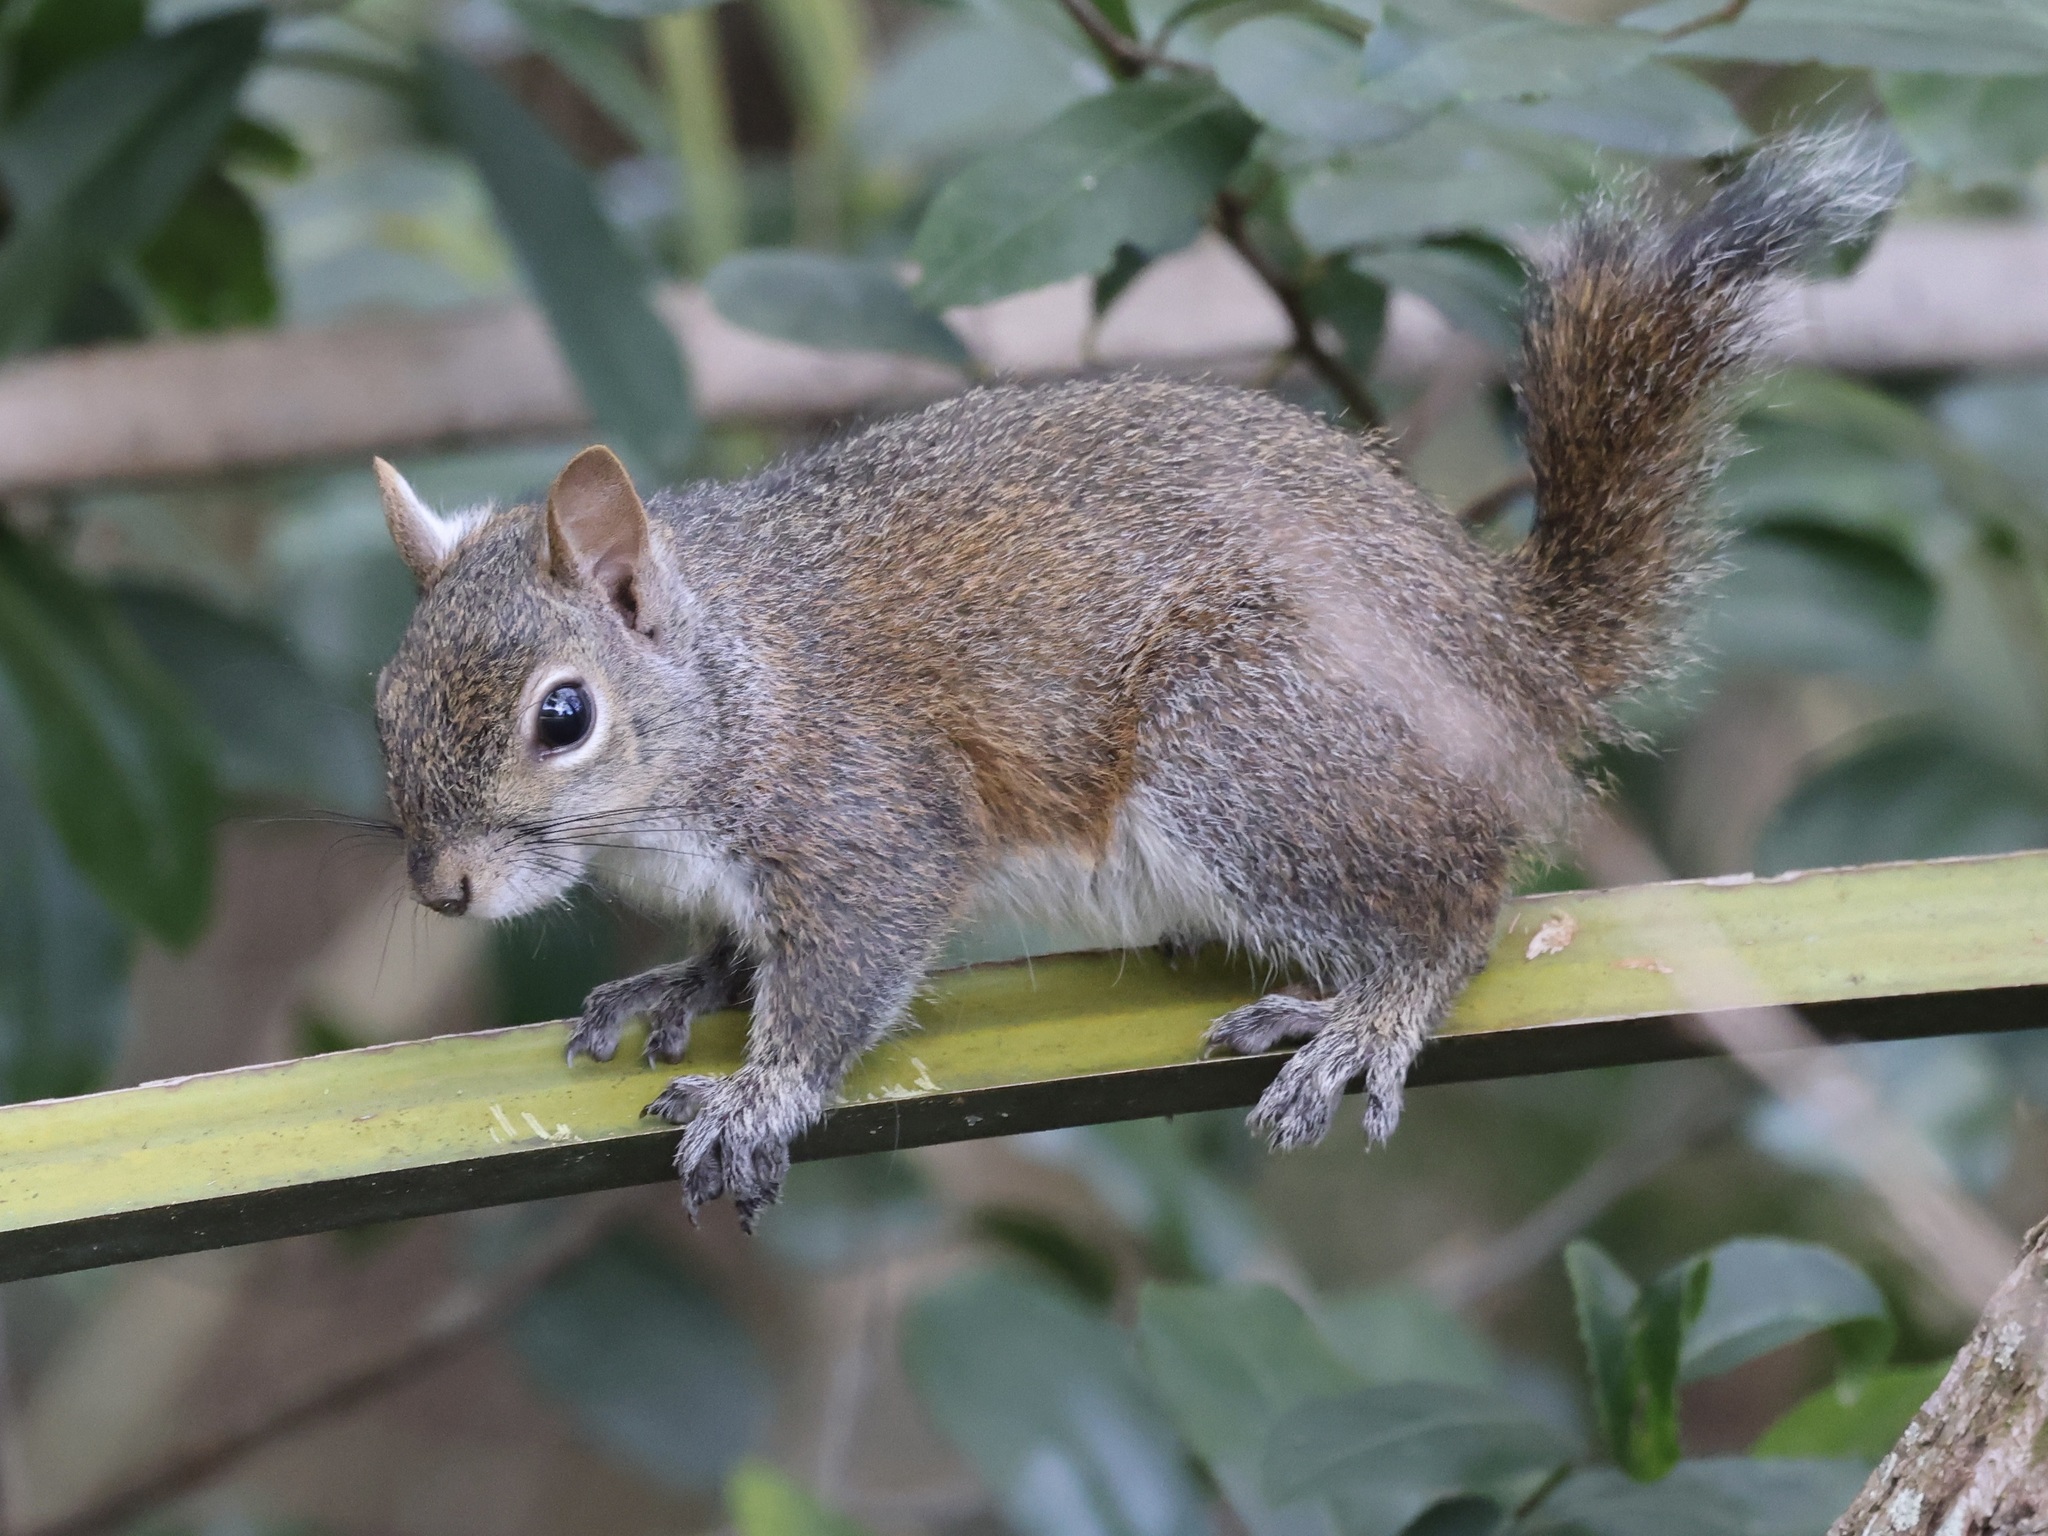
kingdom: Animalia
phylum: Chordata
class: Mammalia
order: Rodentia
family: Sciuridae
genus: Sciurus
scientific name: Sciurus carolinensis
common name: Eastern gray squirrel
